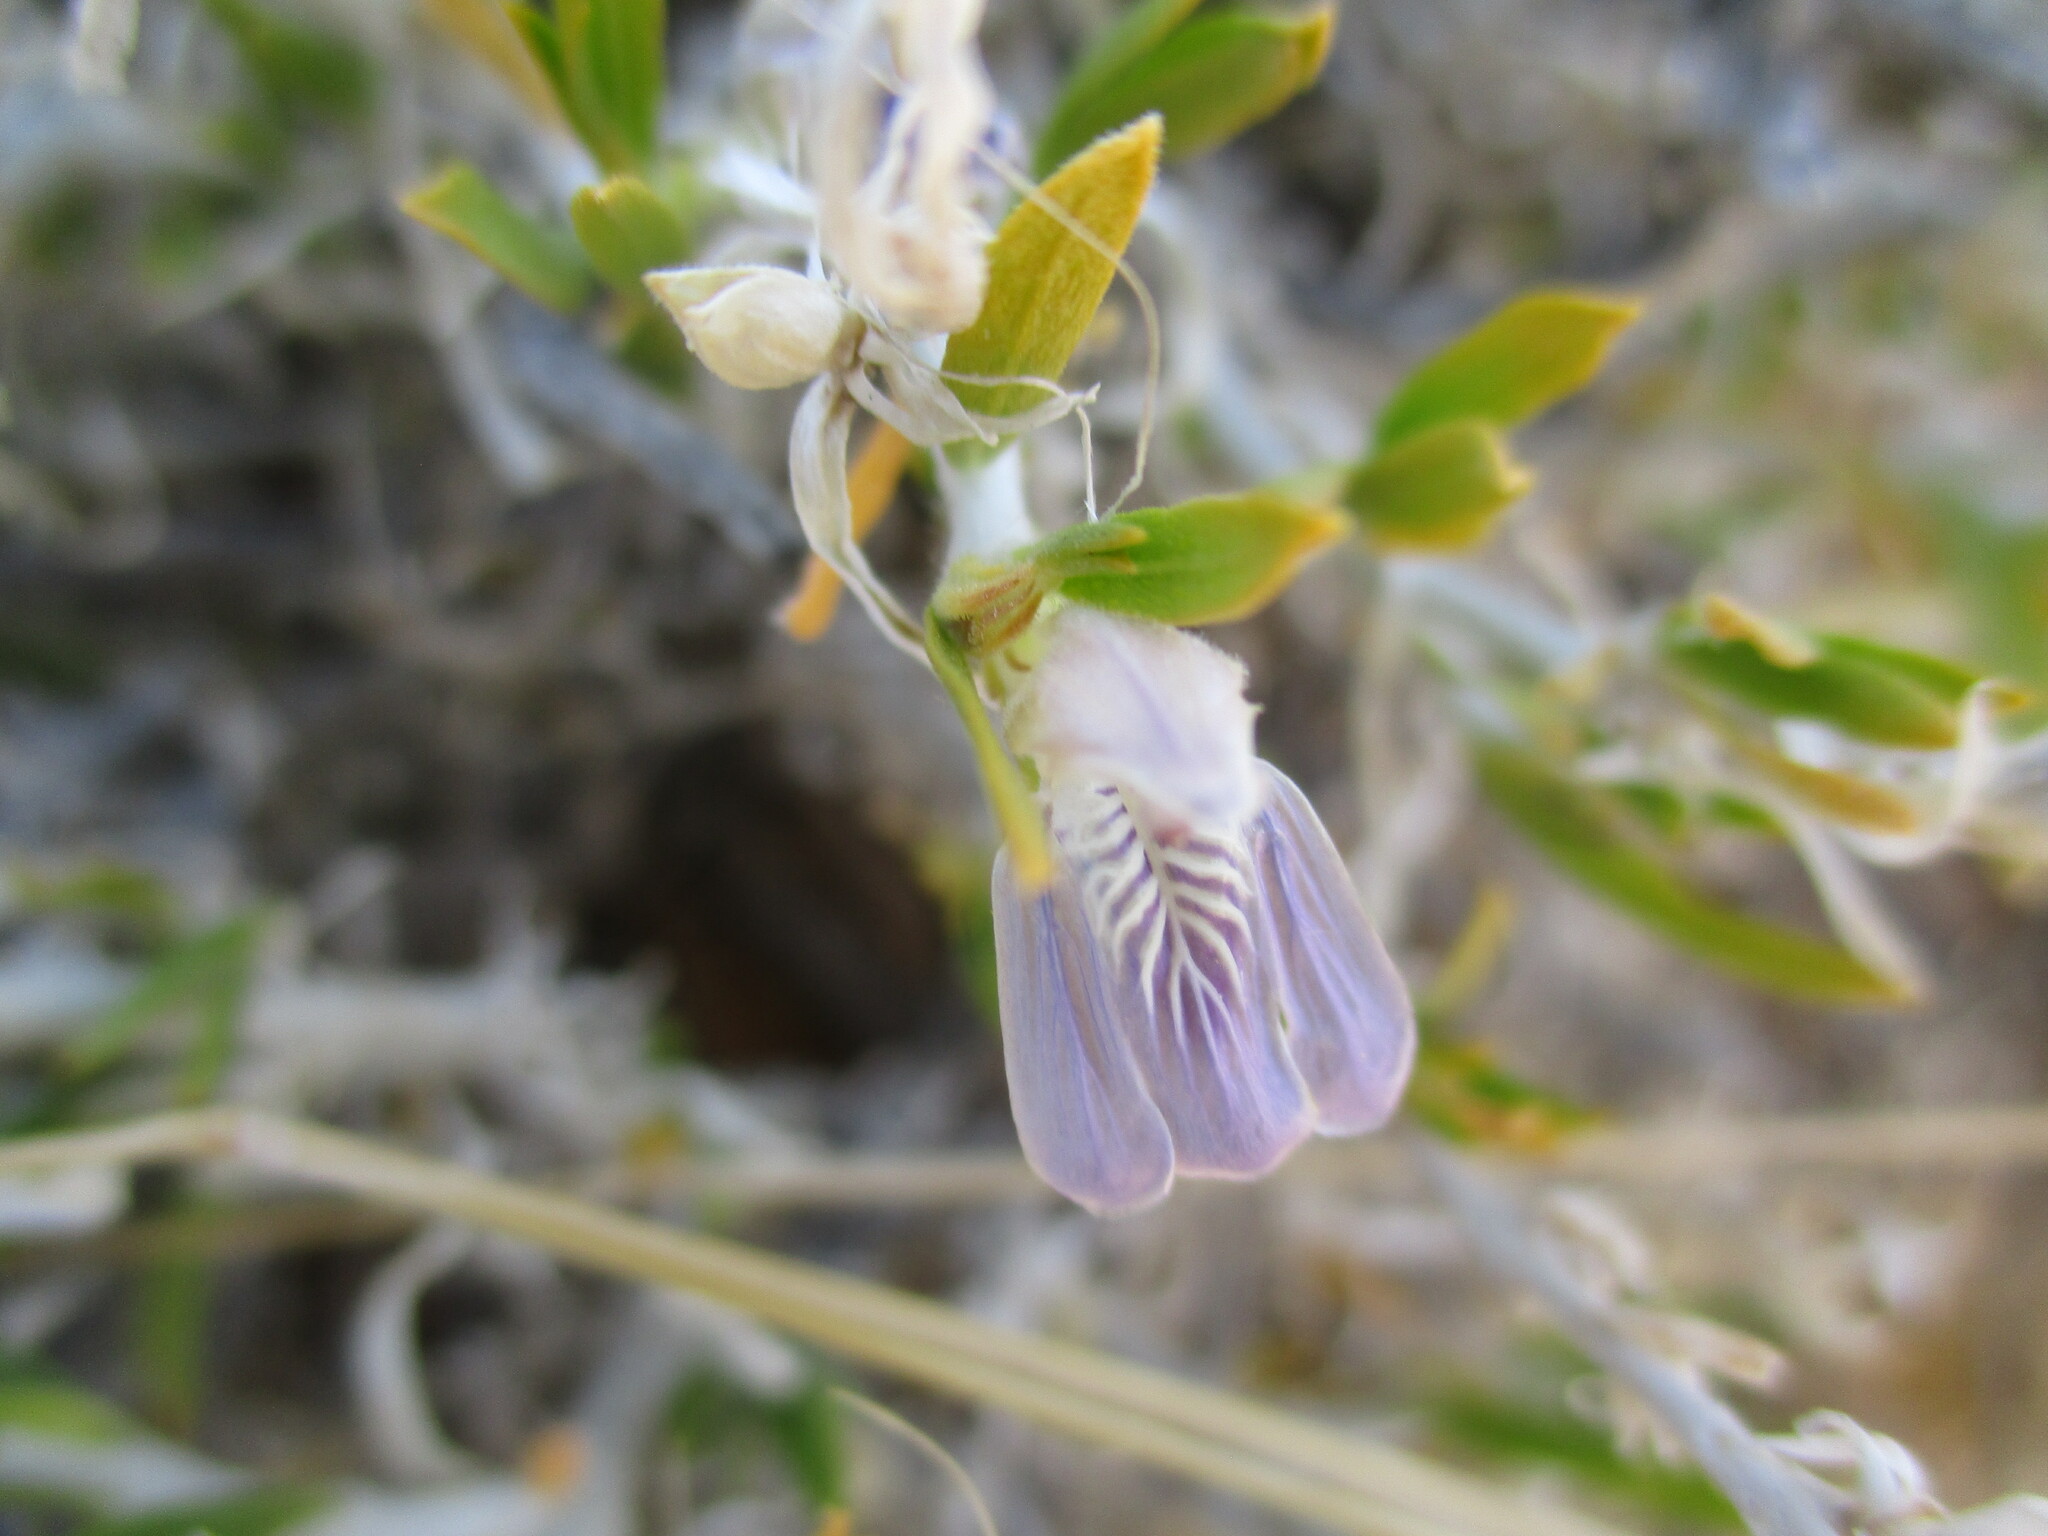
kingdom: Plantae
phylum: Tracheophyta
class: Magnoliopsida
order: Lamiales
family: Acanthaceae
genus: Pogonospermum
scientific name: Pogonospermum
